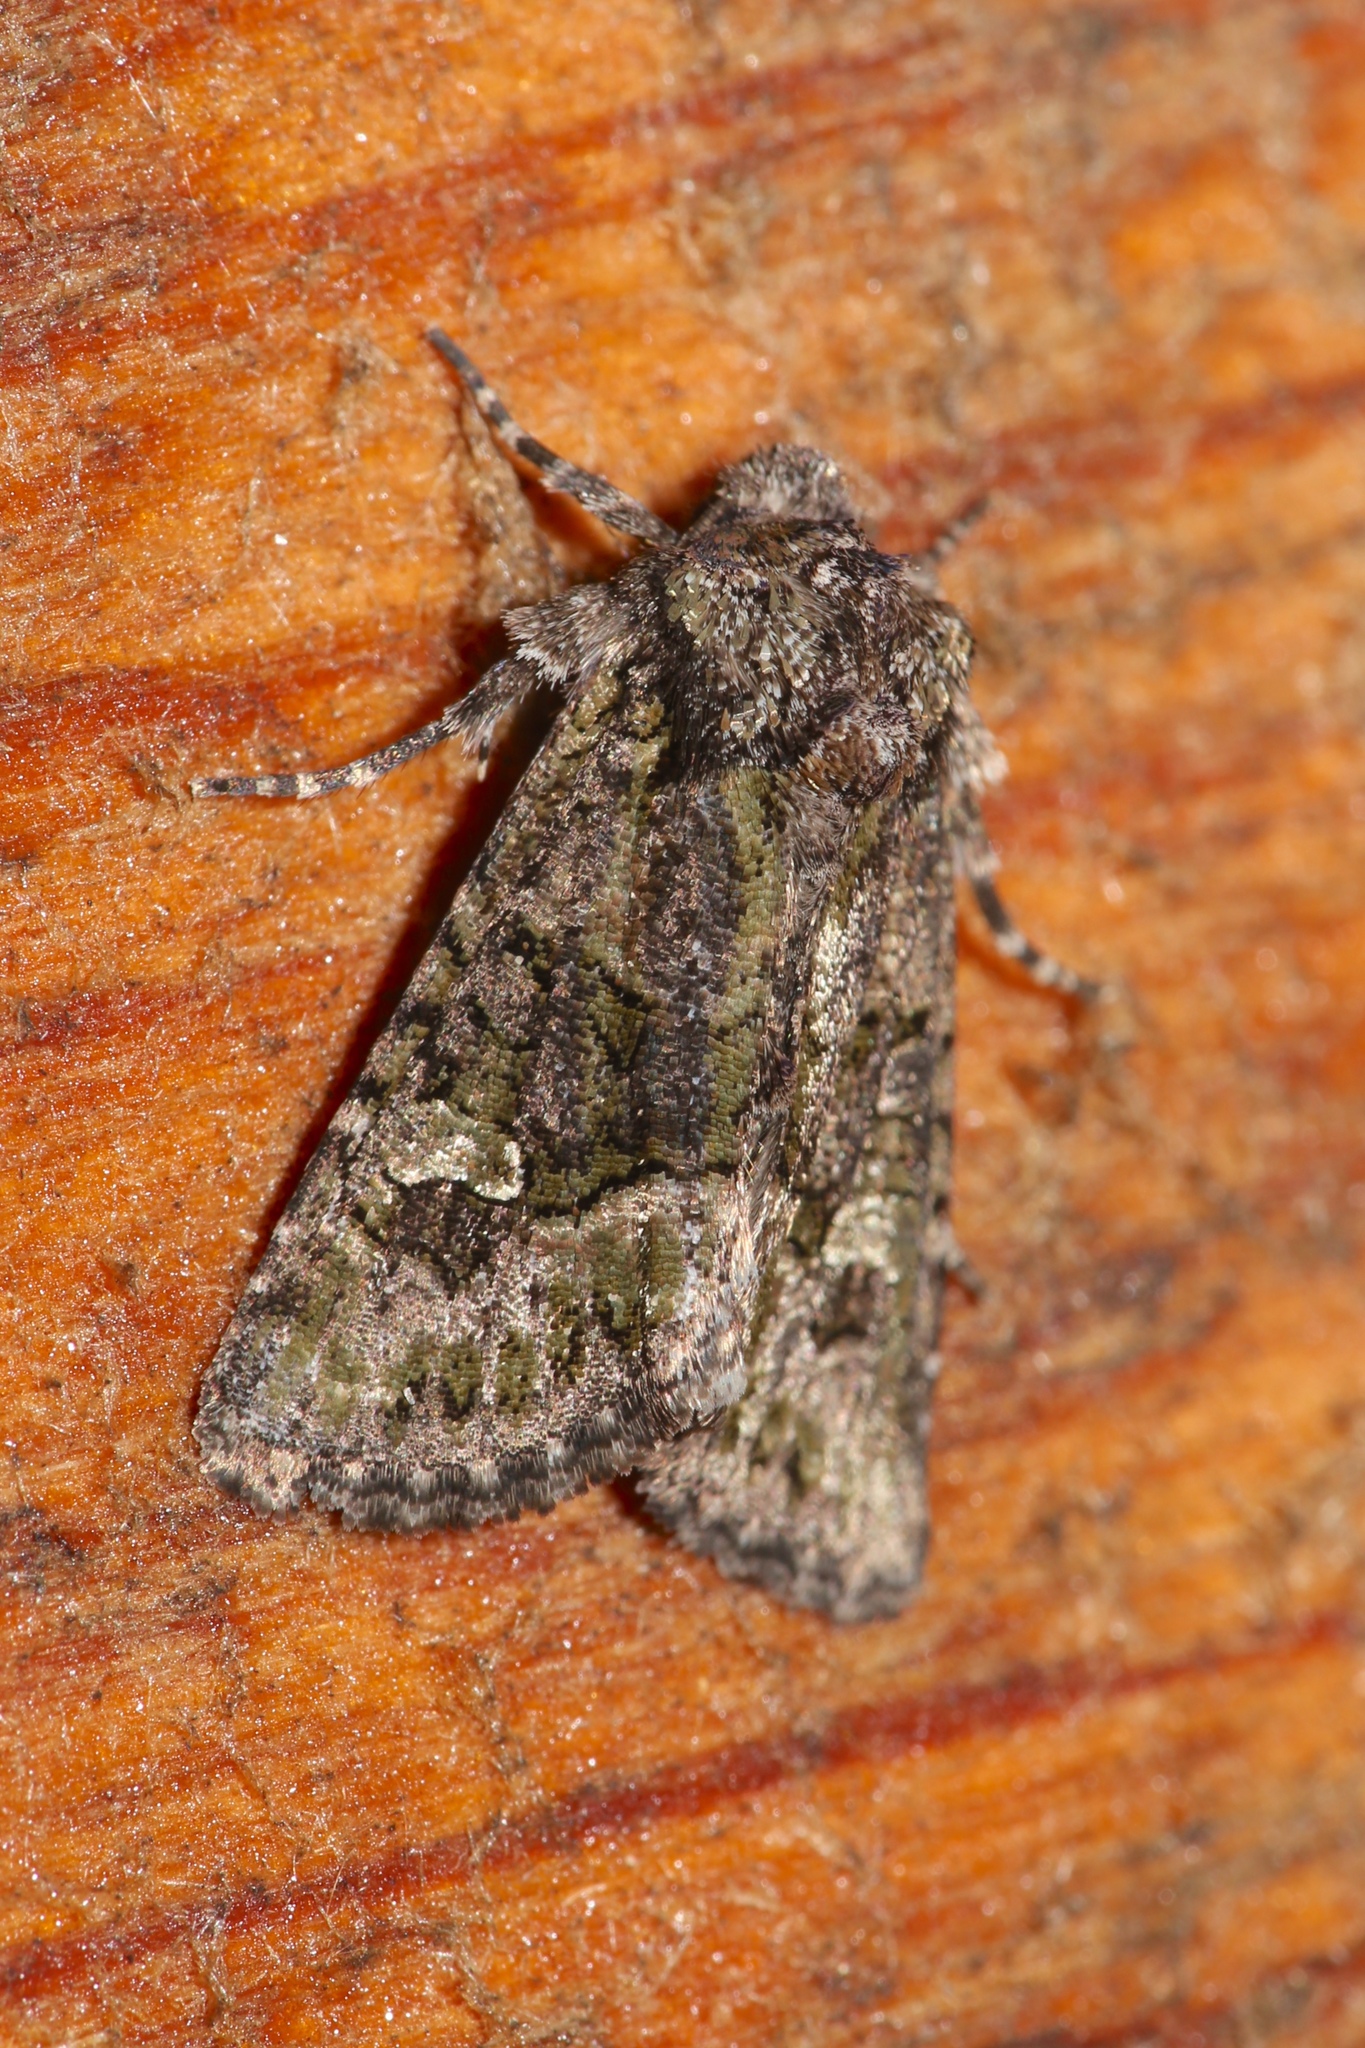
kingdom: Animalia
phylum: Arthropoda
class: Insecta
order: Lepidoptera
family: Noctuidae
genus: Lacinipolia
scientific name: Lacinipolia olivacea
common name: Olive arches moth
